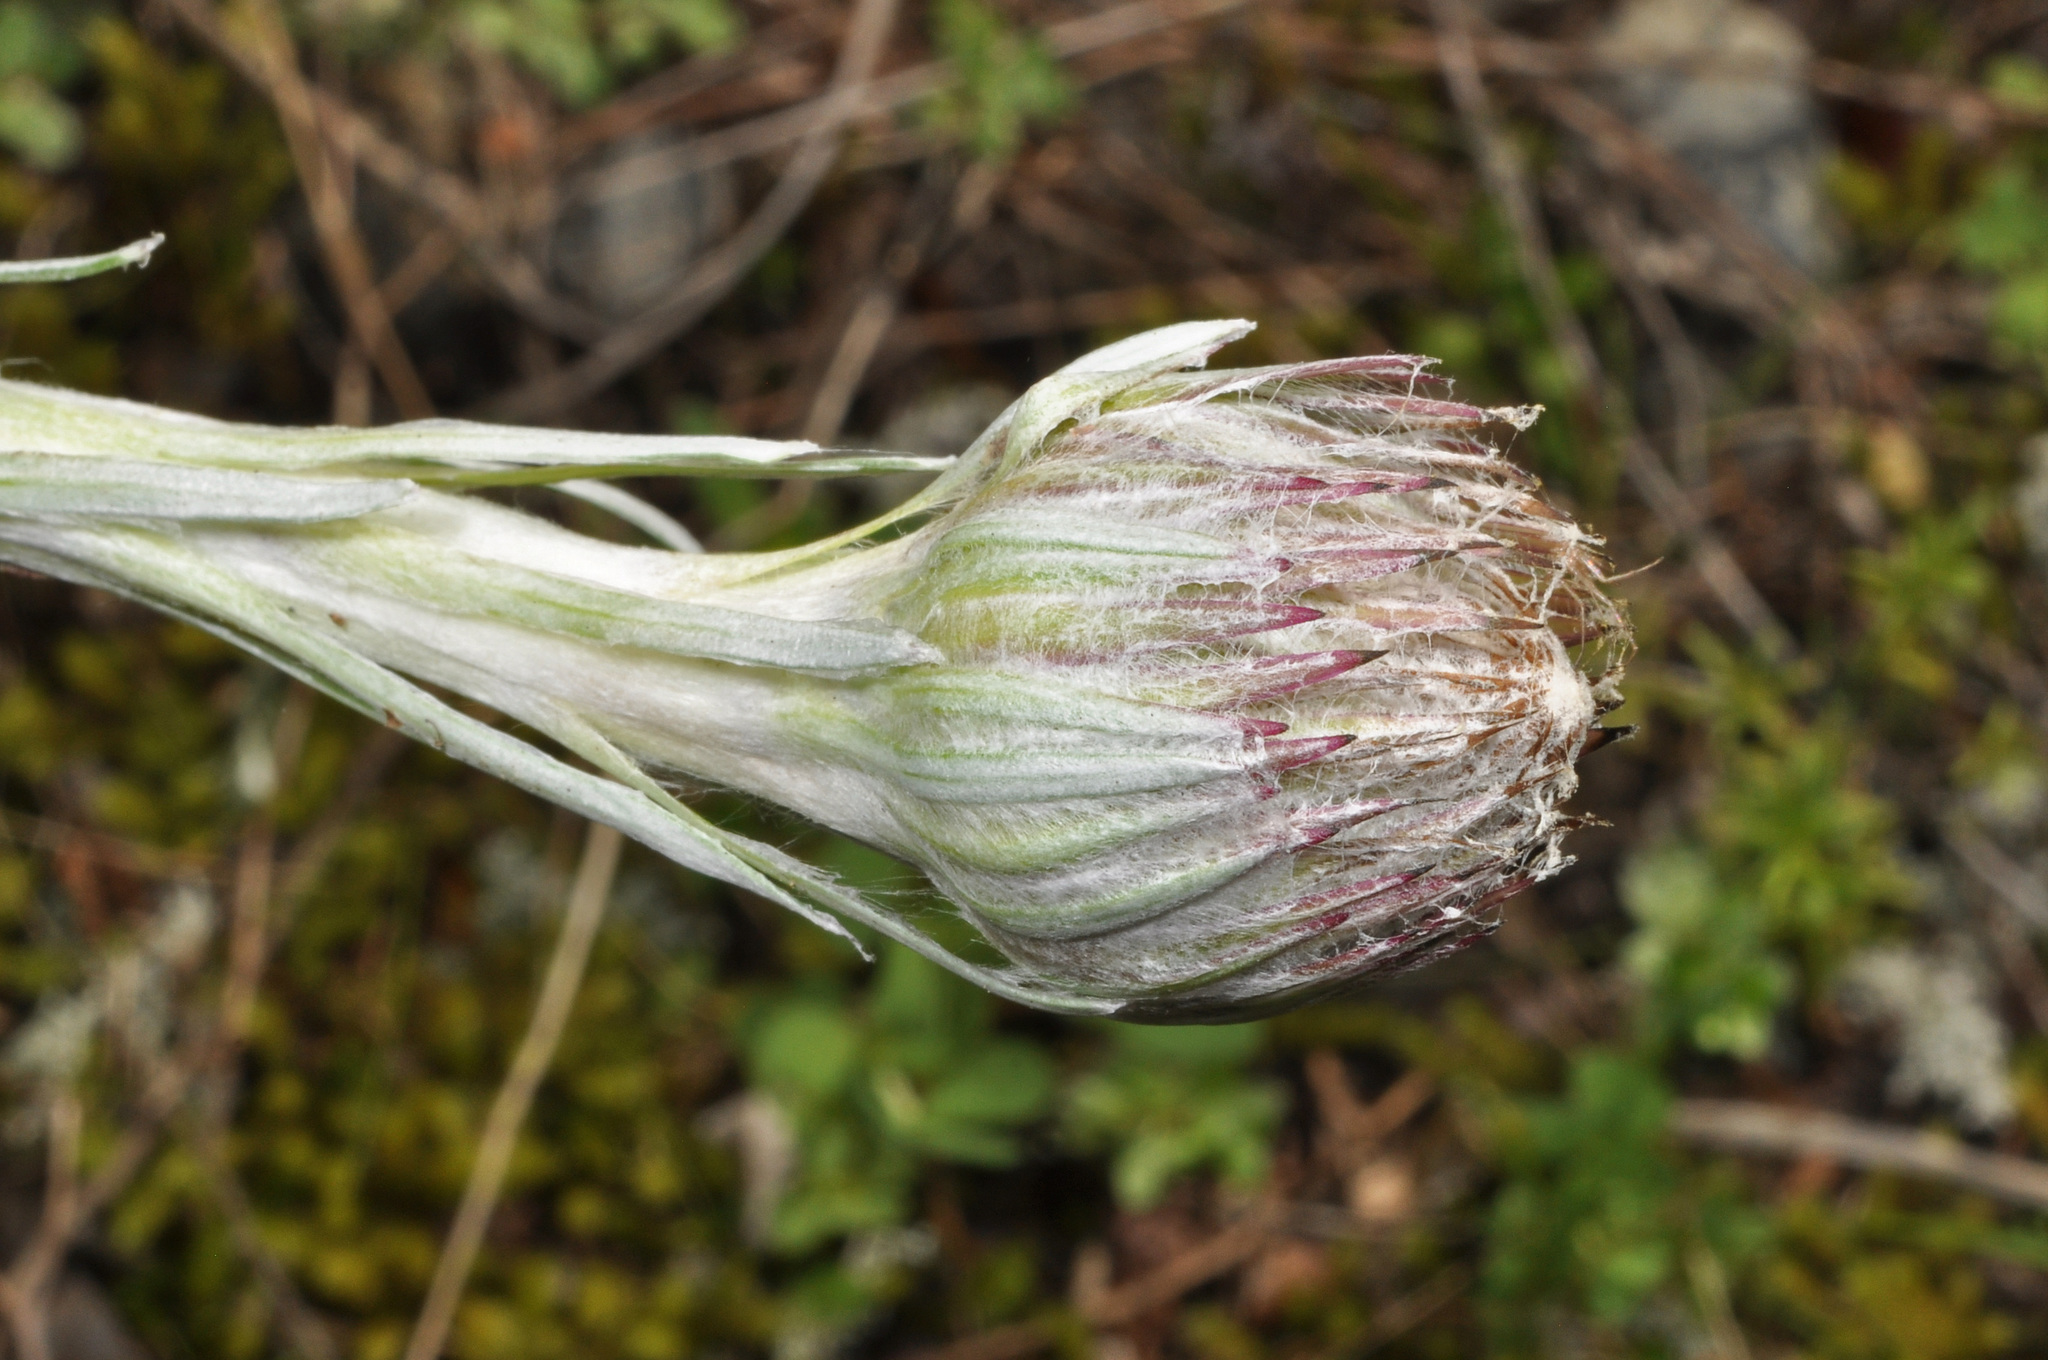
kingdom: Plantae
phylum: Tracheophyta
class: Magnoliopsida
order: Asterales
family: Asteraceae
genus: Celmisia
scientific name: Celmisia monroi
